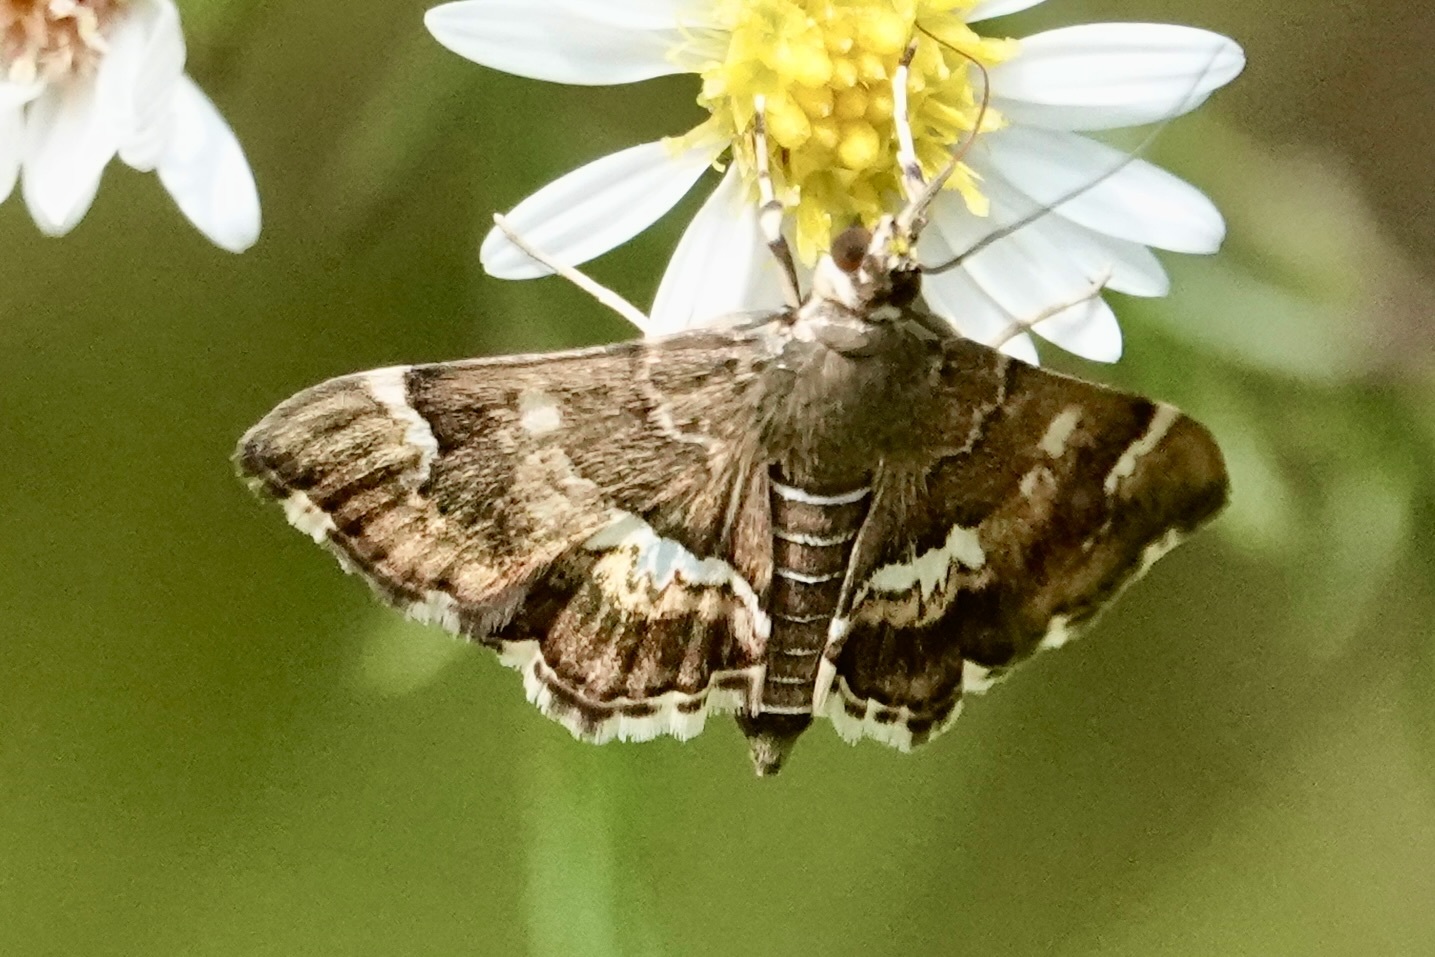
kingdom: Animalia
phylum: Arthropoda
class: Insecta
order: Lepidoptera
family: Crambidae
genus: Hymenia
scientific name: Hymenia perspectalis
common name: Spotted beet webworm
